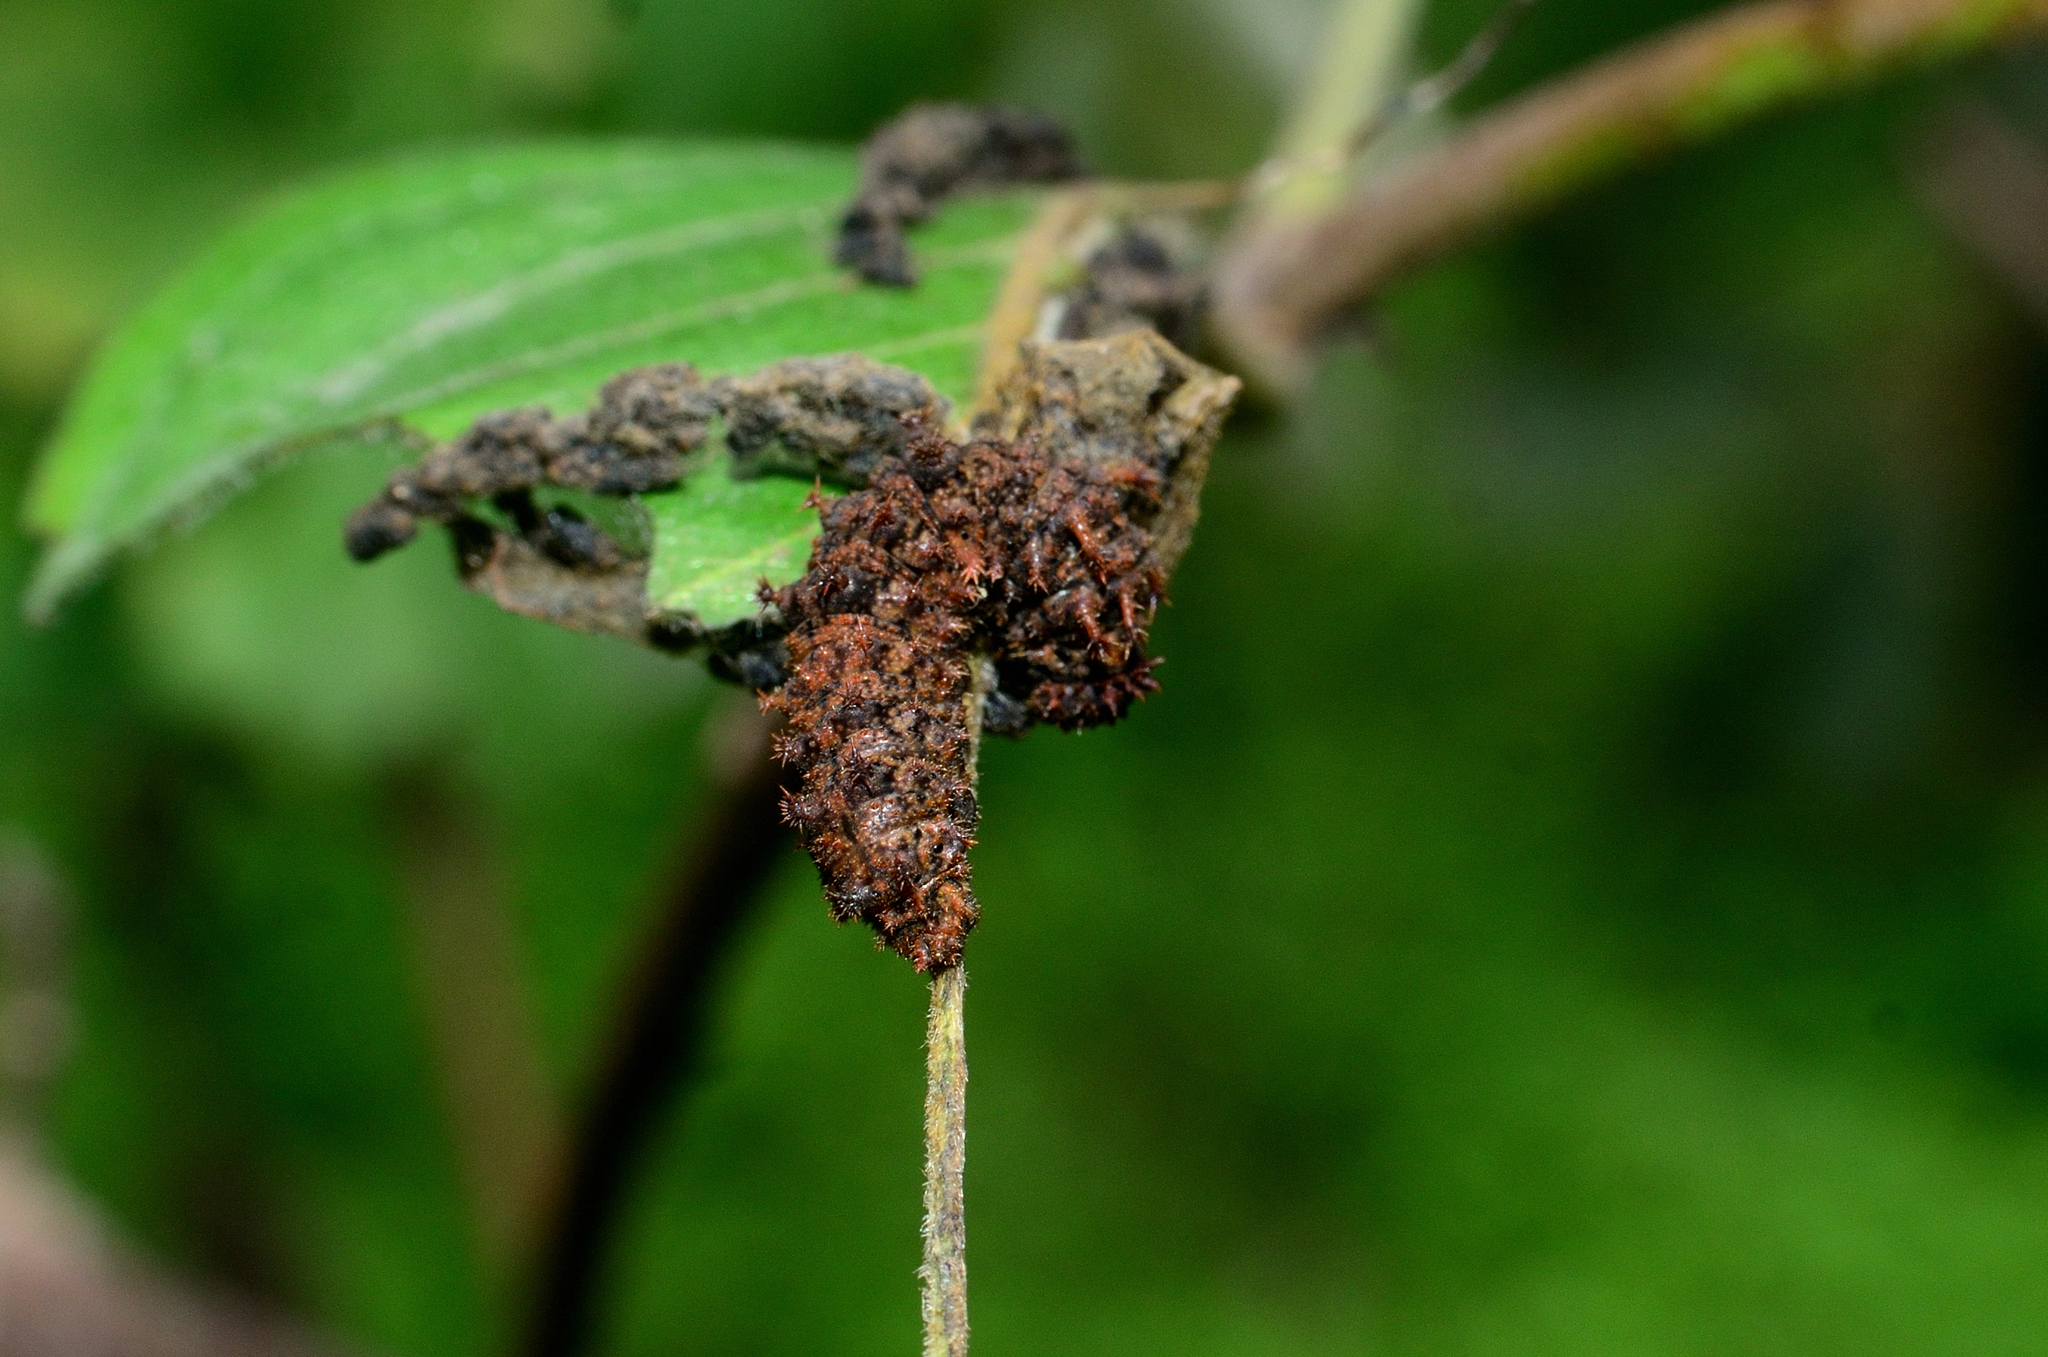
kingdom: Animalia
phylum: Arthropoda
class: Insecta
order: Lepidoptera
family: Nymphalidae
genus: Limenitis
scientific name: Limenitis Moduza procris
